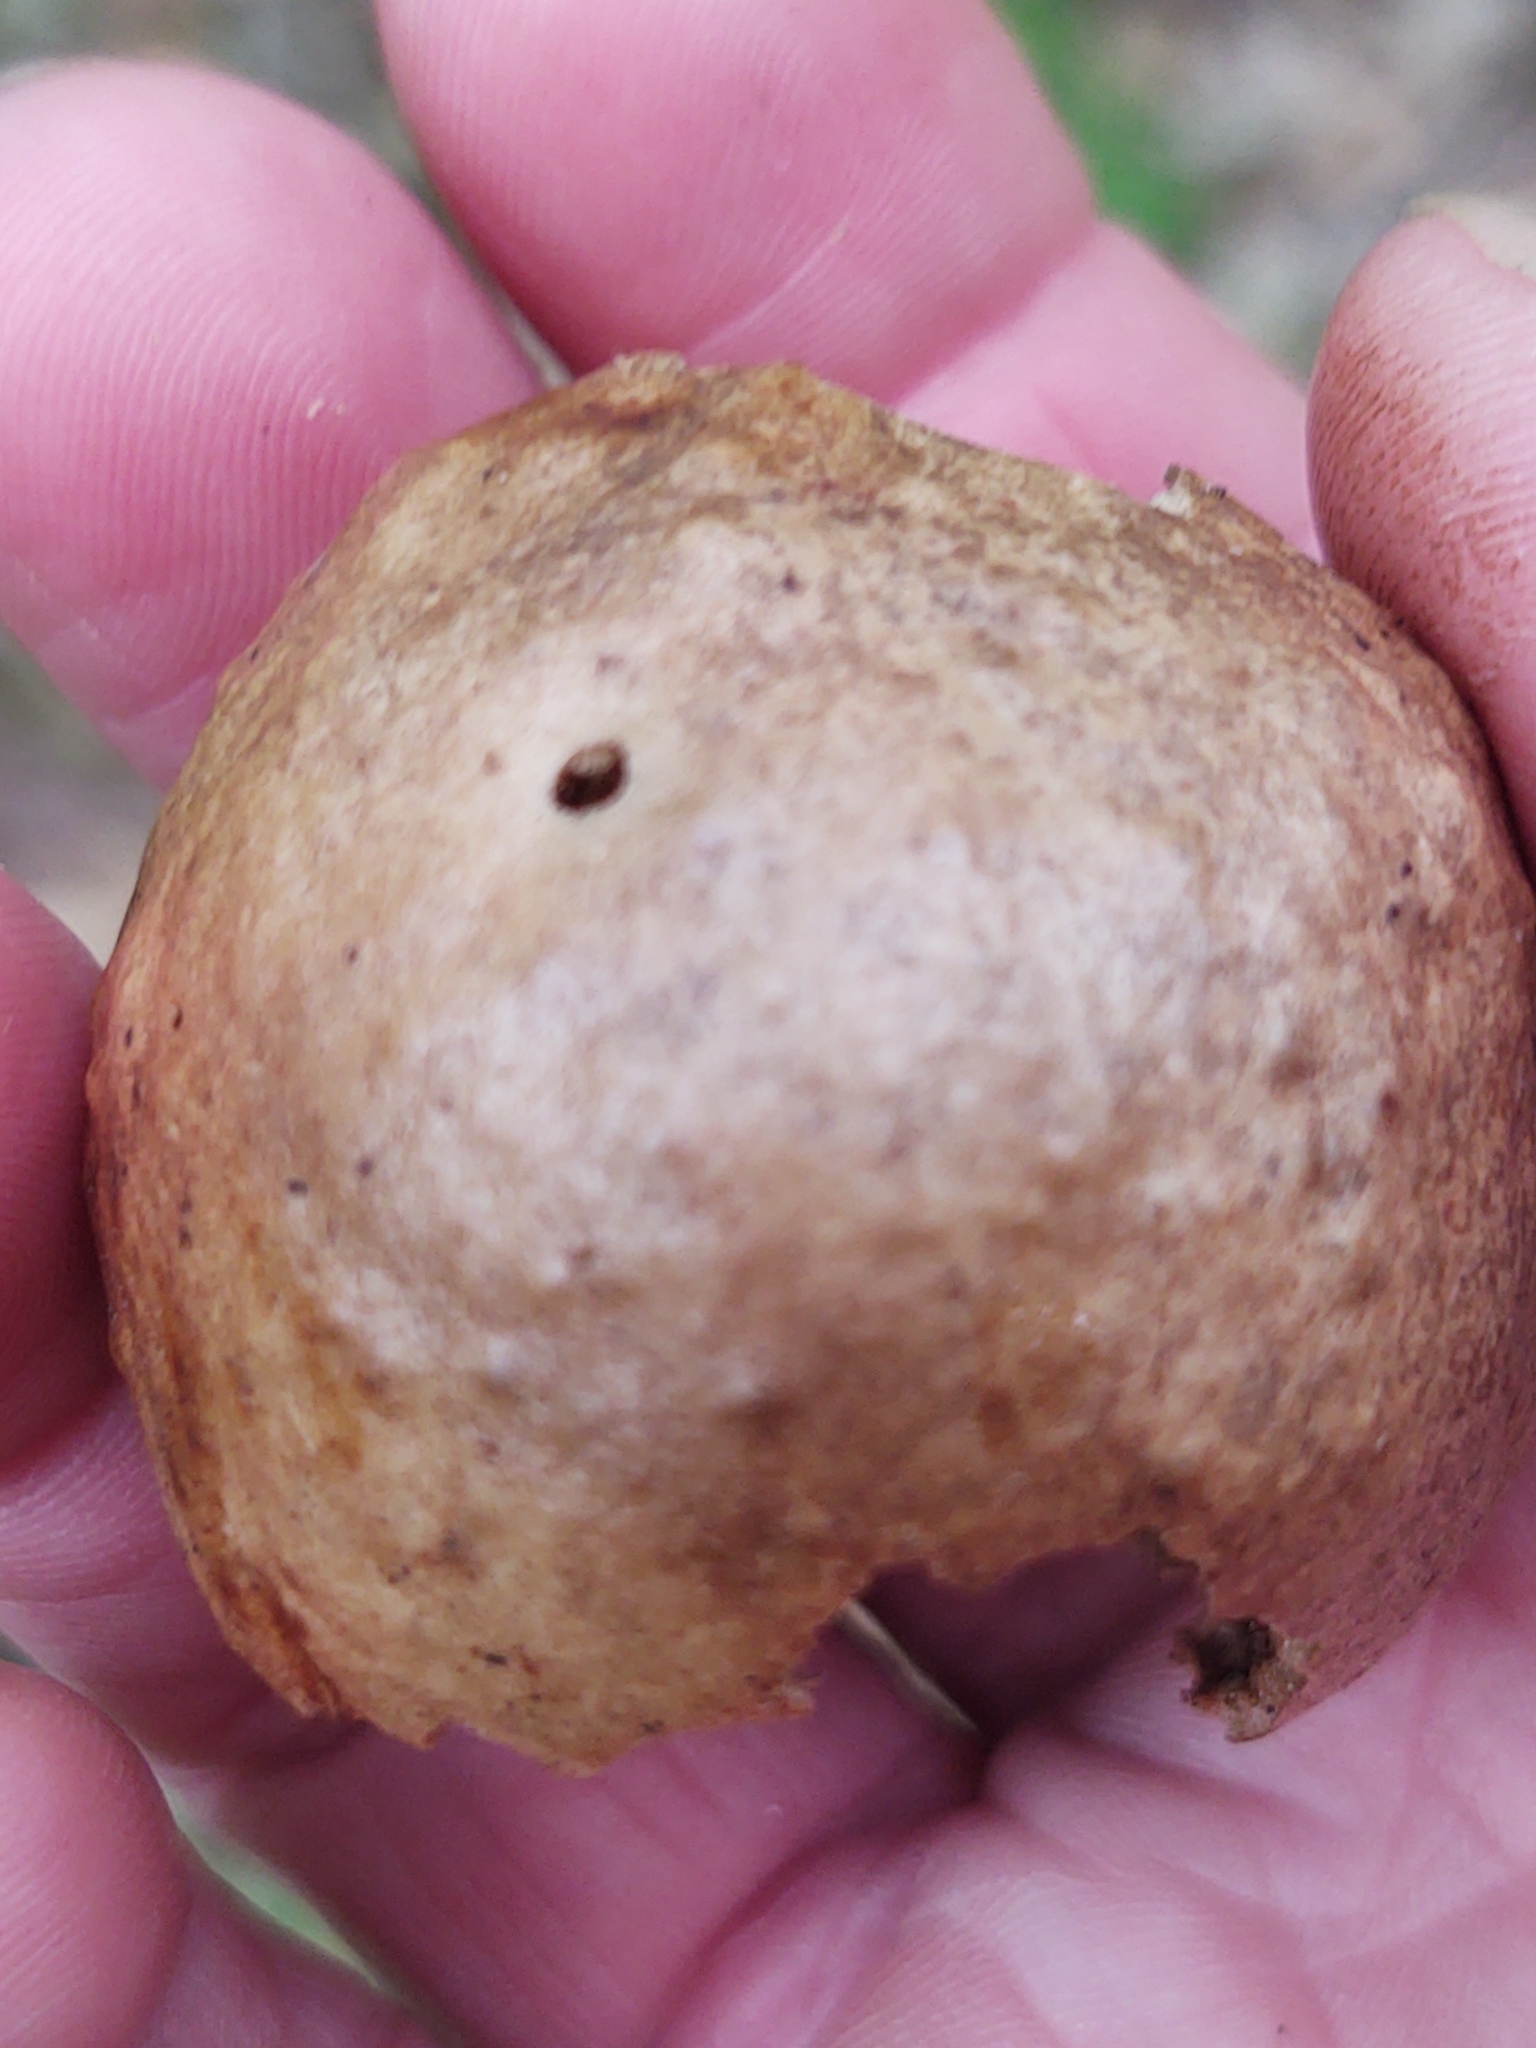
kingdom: Animalia
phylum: Arthropoda
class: Insecta
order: Hymenoptera
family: Cynipidae
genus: Amphibolips
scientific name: Amphibolips
